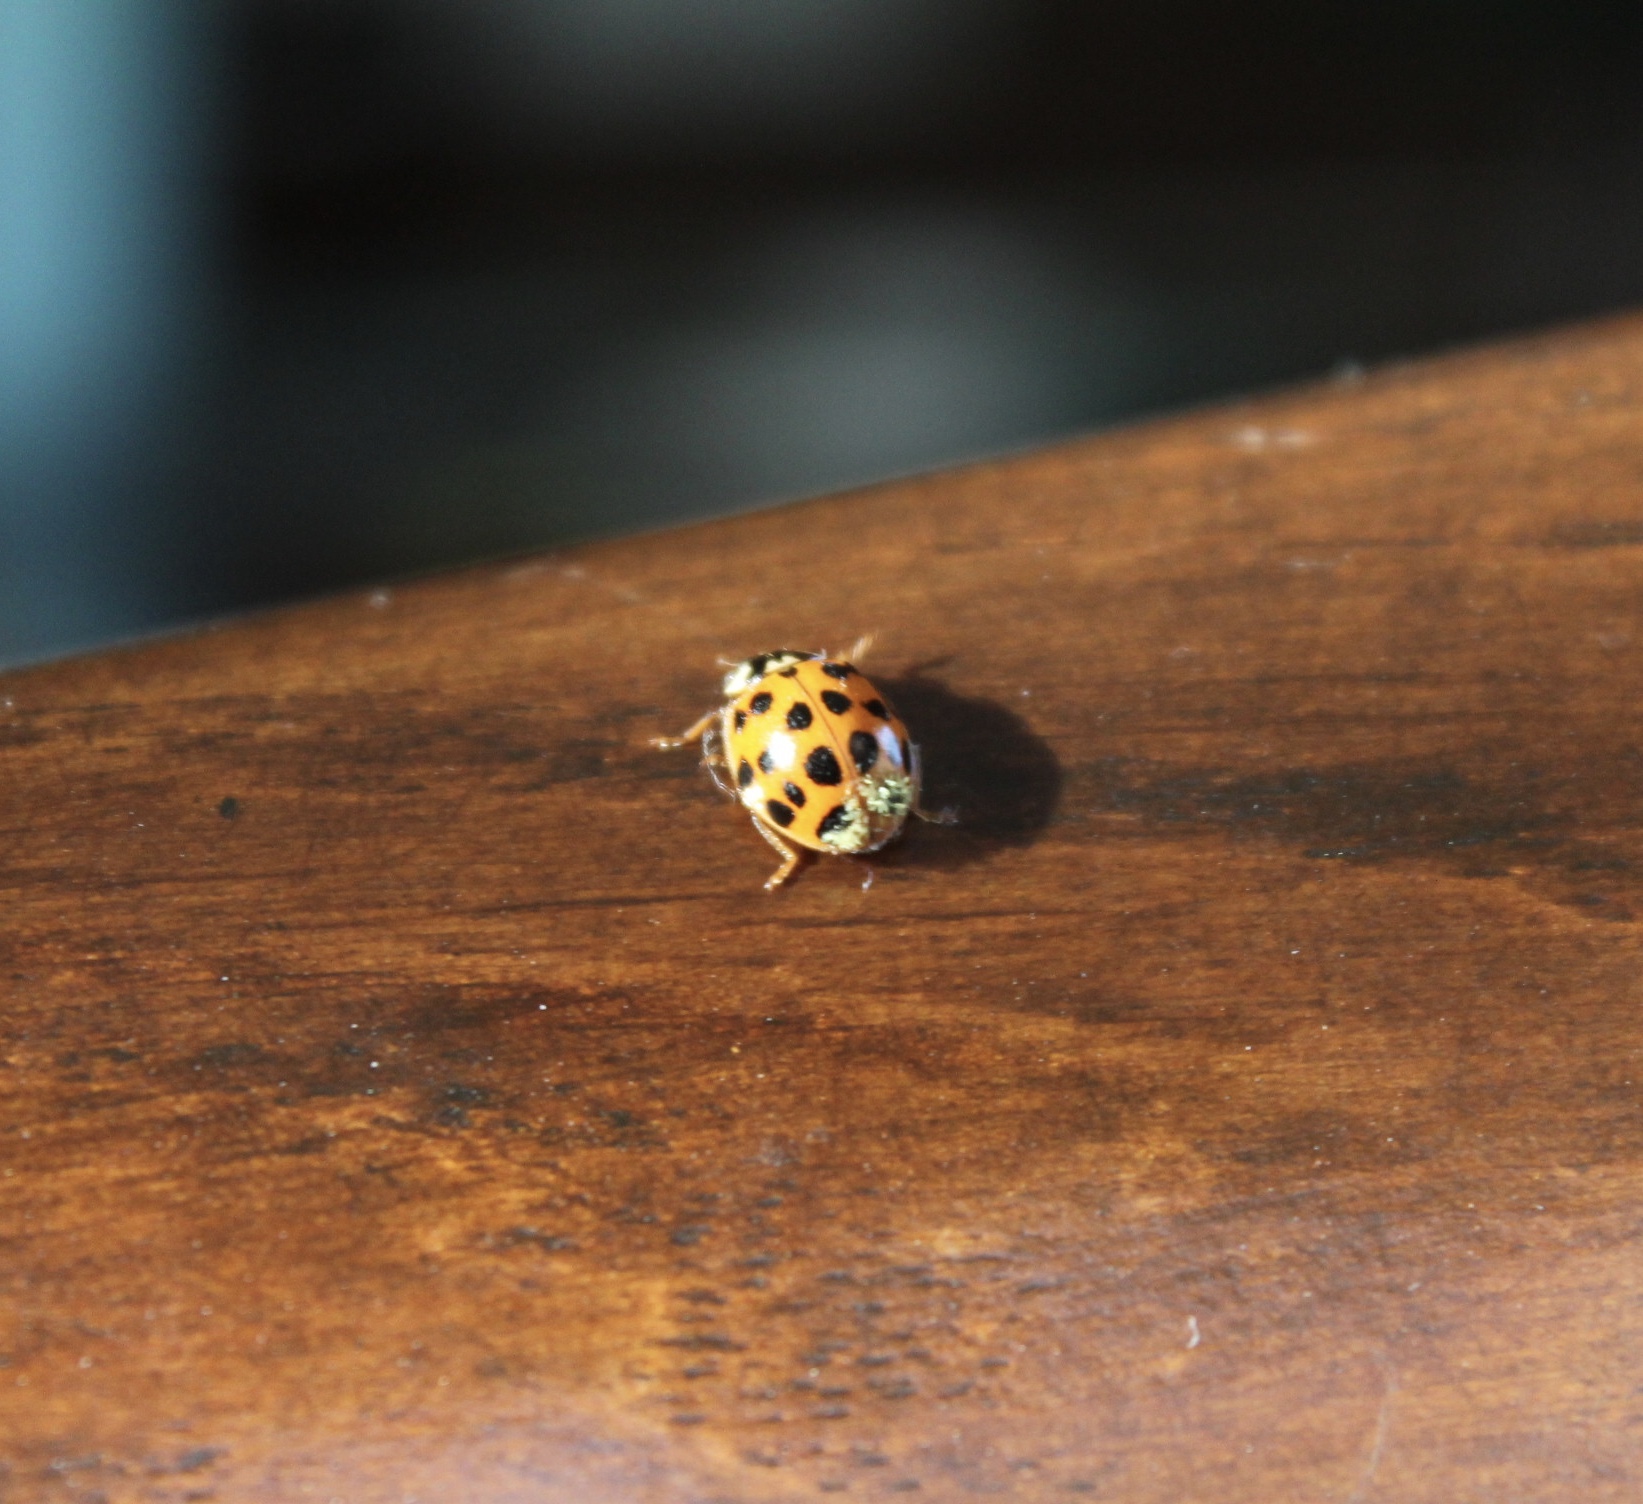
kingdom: Fungi
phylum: Ascomycota
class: Laboulbeniomycetes
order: Laboulbeniales
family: Laboulbeniaceae
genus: Hesperomyces
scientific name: Hesperomyces harmoniae
